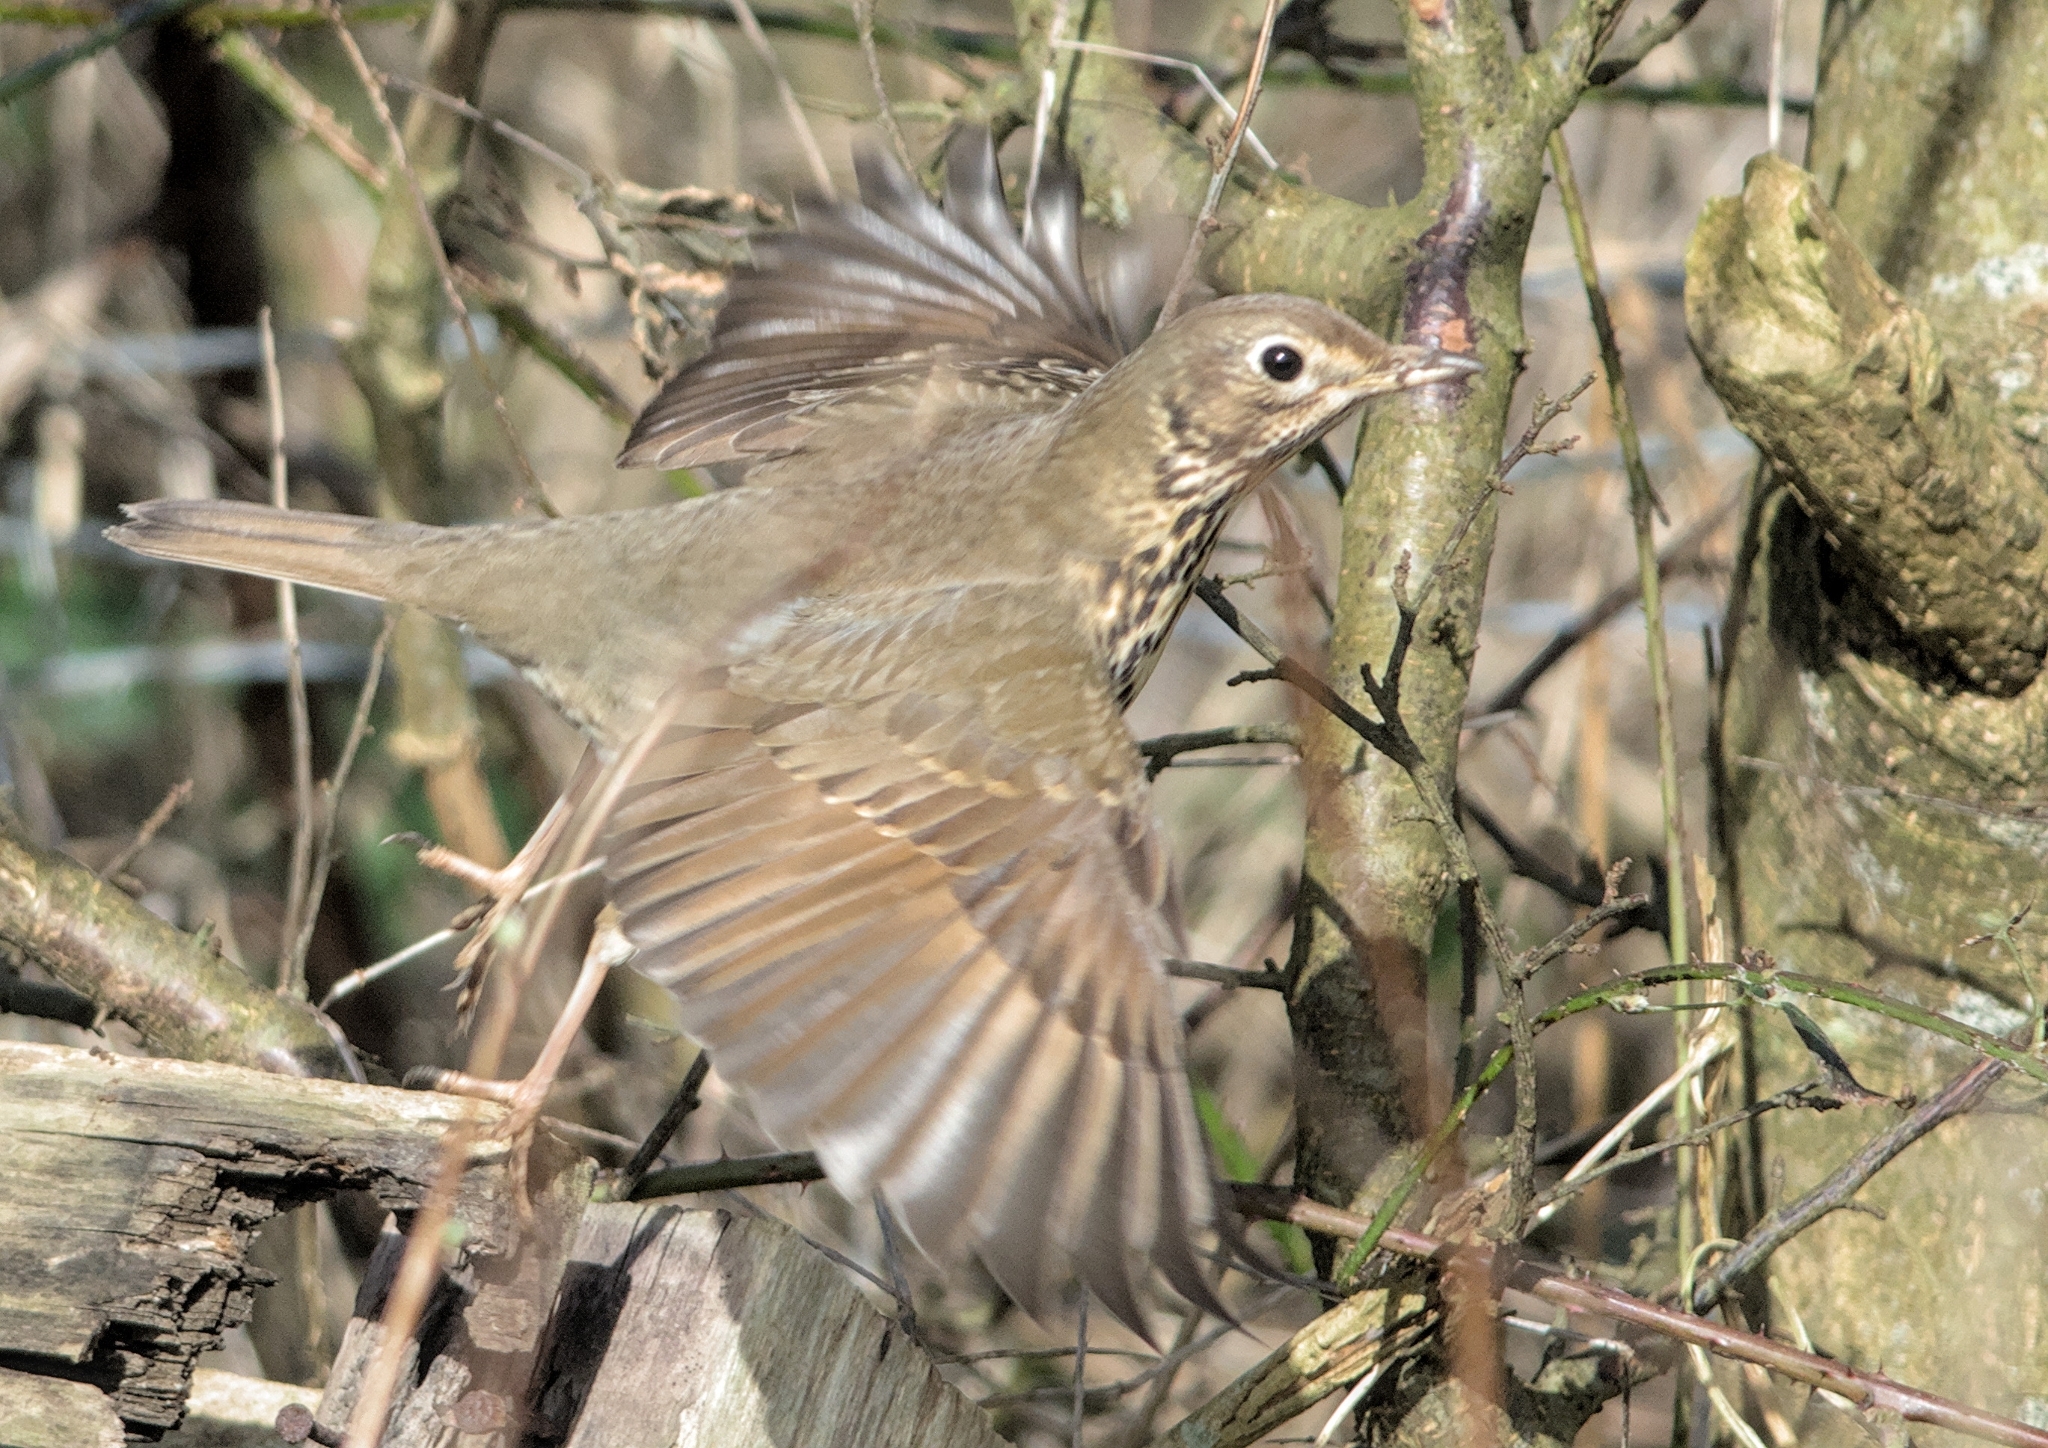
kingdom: Animalia
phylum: Chordata
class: Aves
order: Passeriformes
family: Turdidae
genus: Turdus
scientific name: Turdus philomelos
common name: Song thrush
